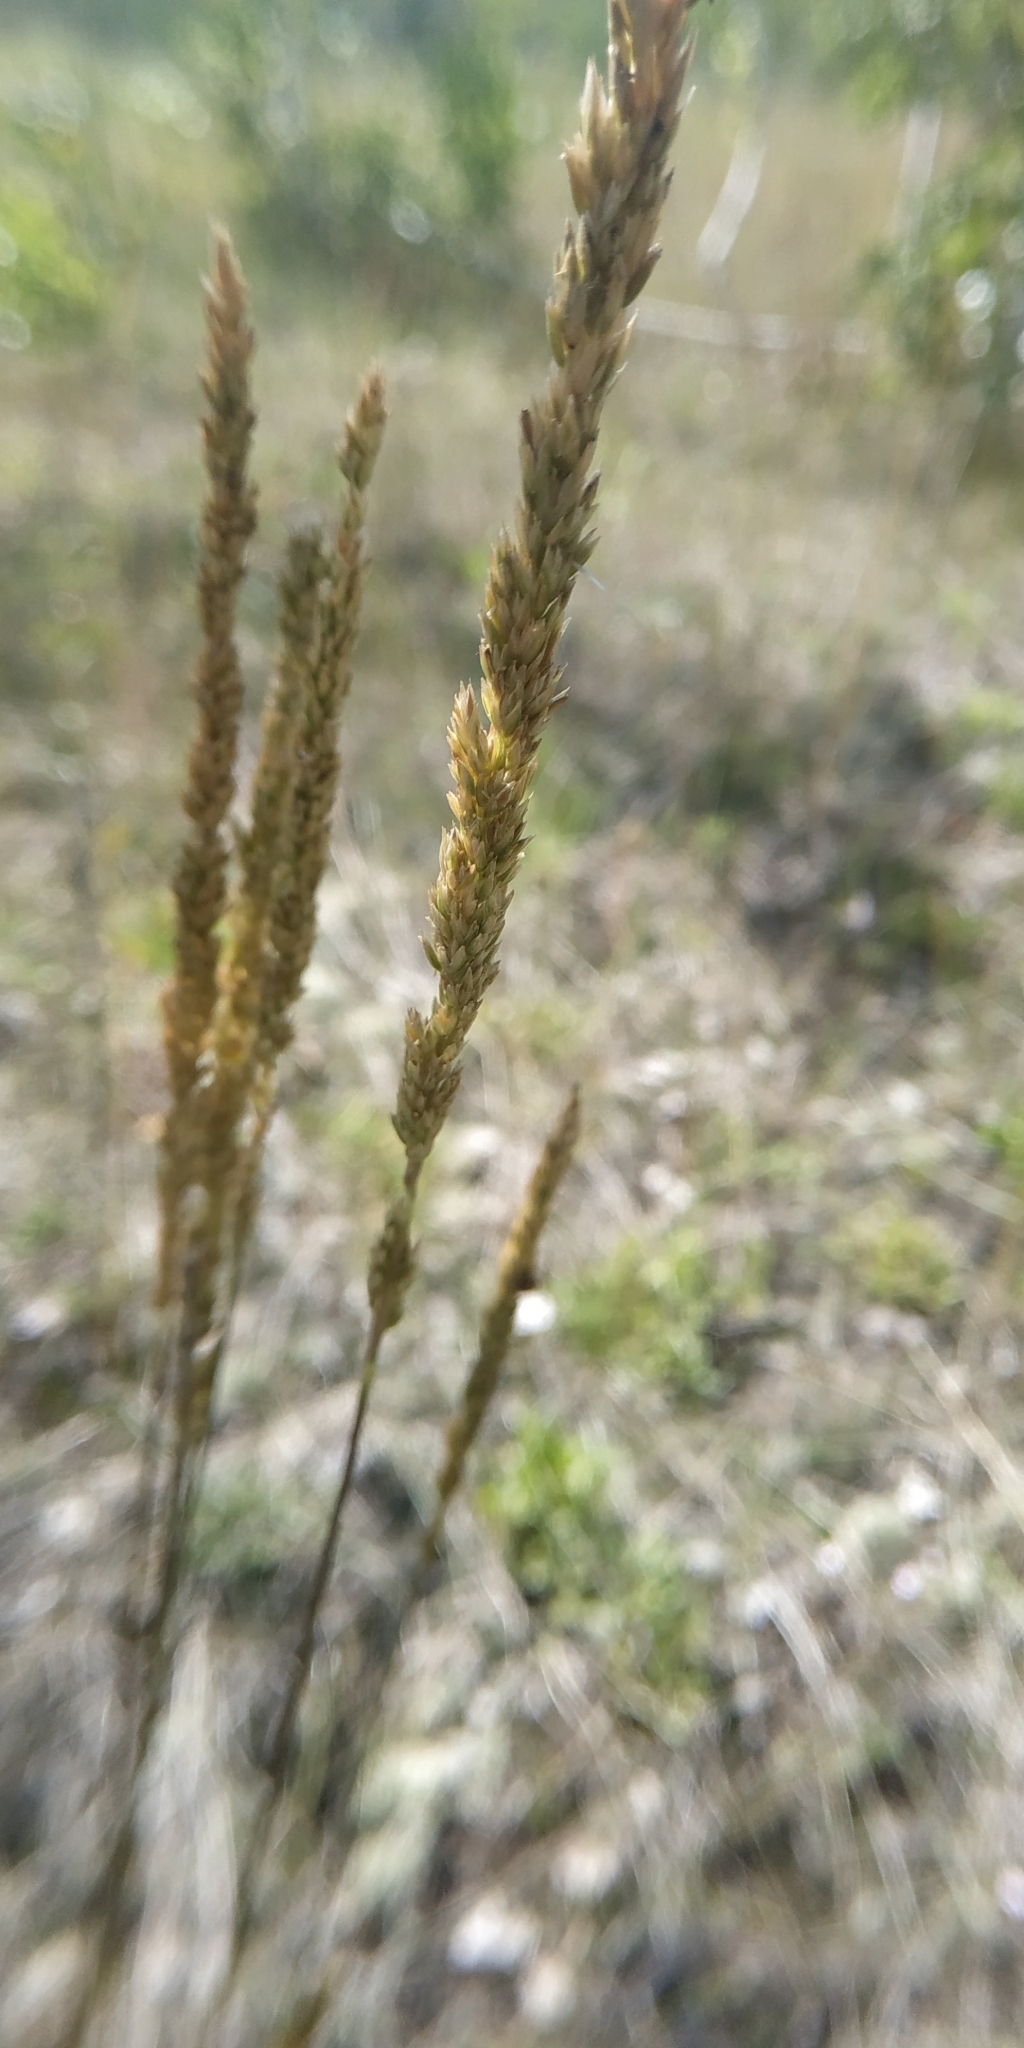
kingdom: Plantae
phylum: Tracheophyta
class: Liliopsida
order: Poales
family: Poaceae
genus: Koeleria
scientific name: Koeleria glauca
